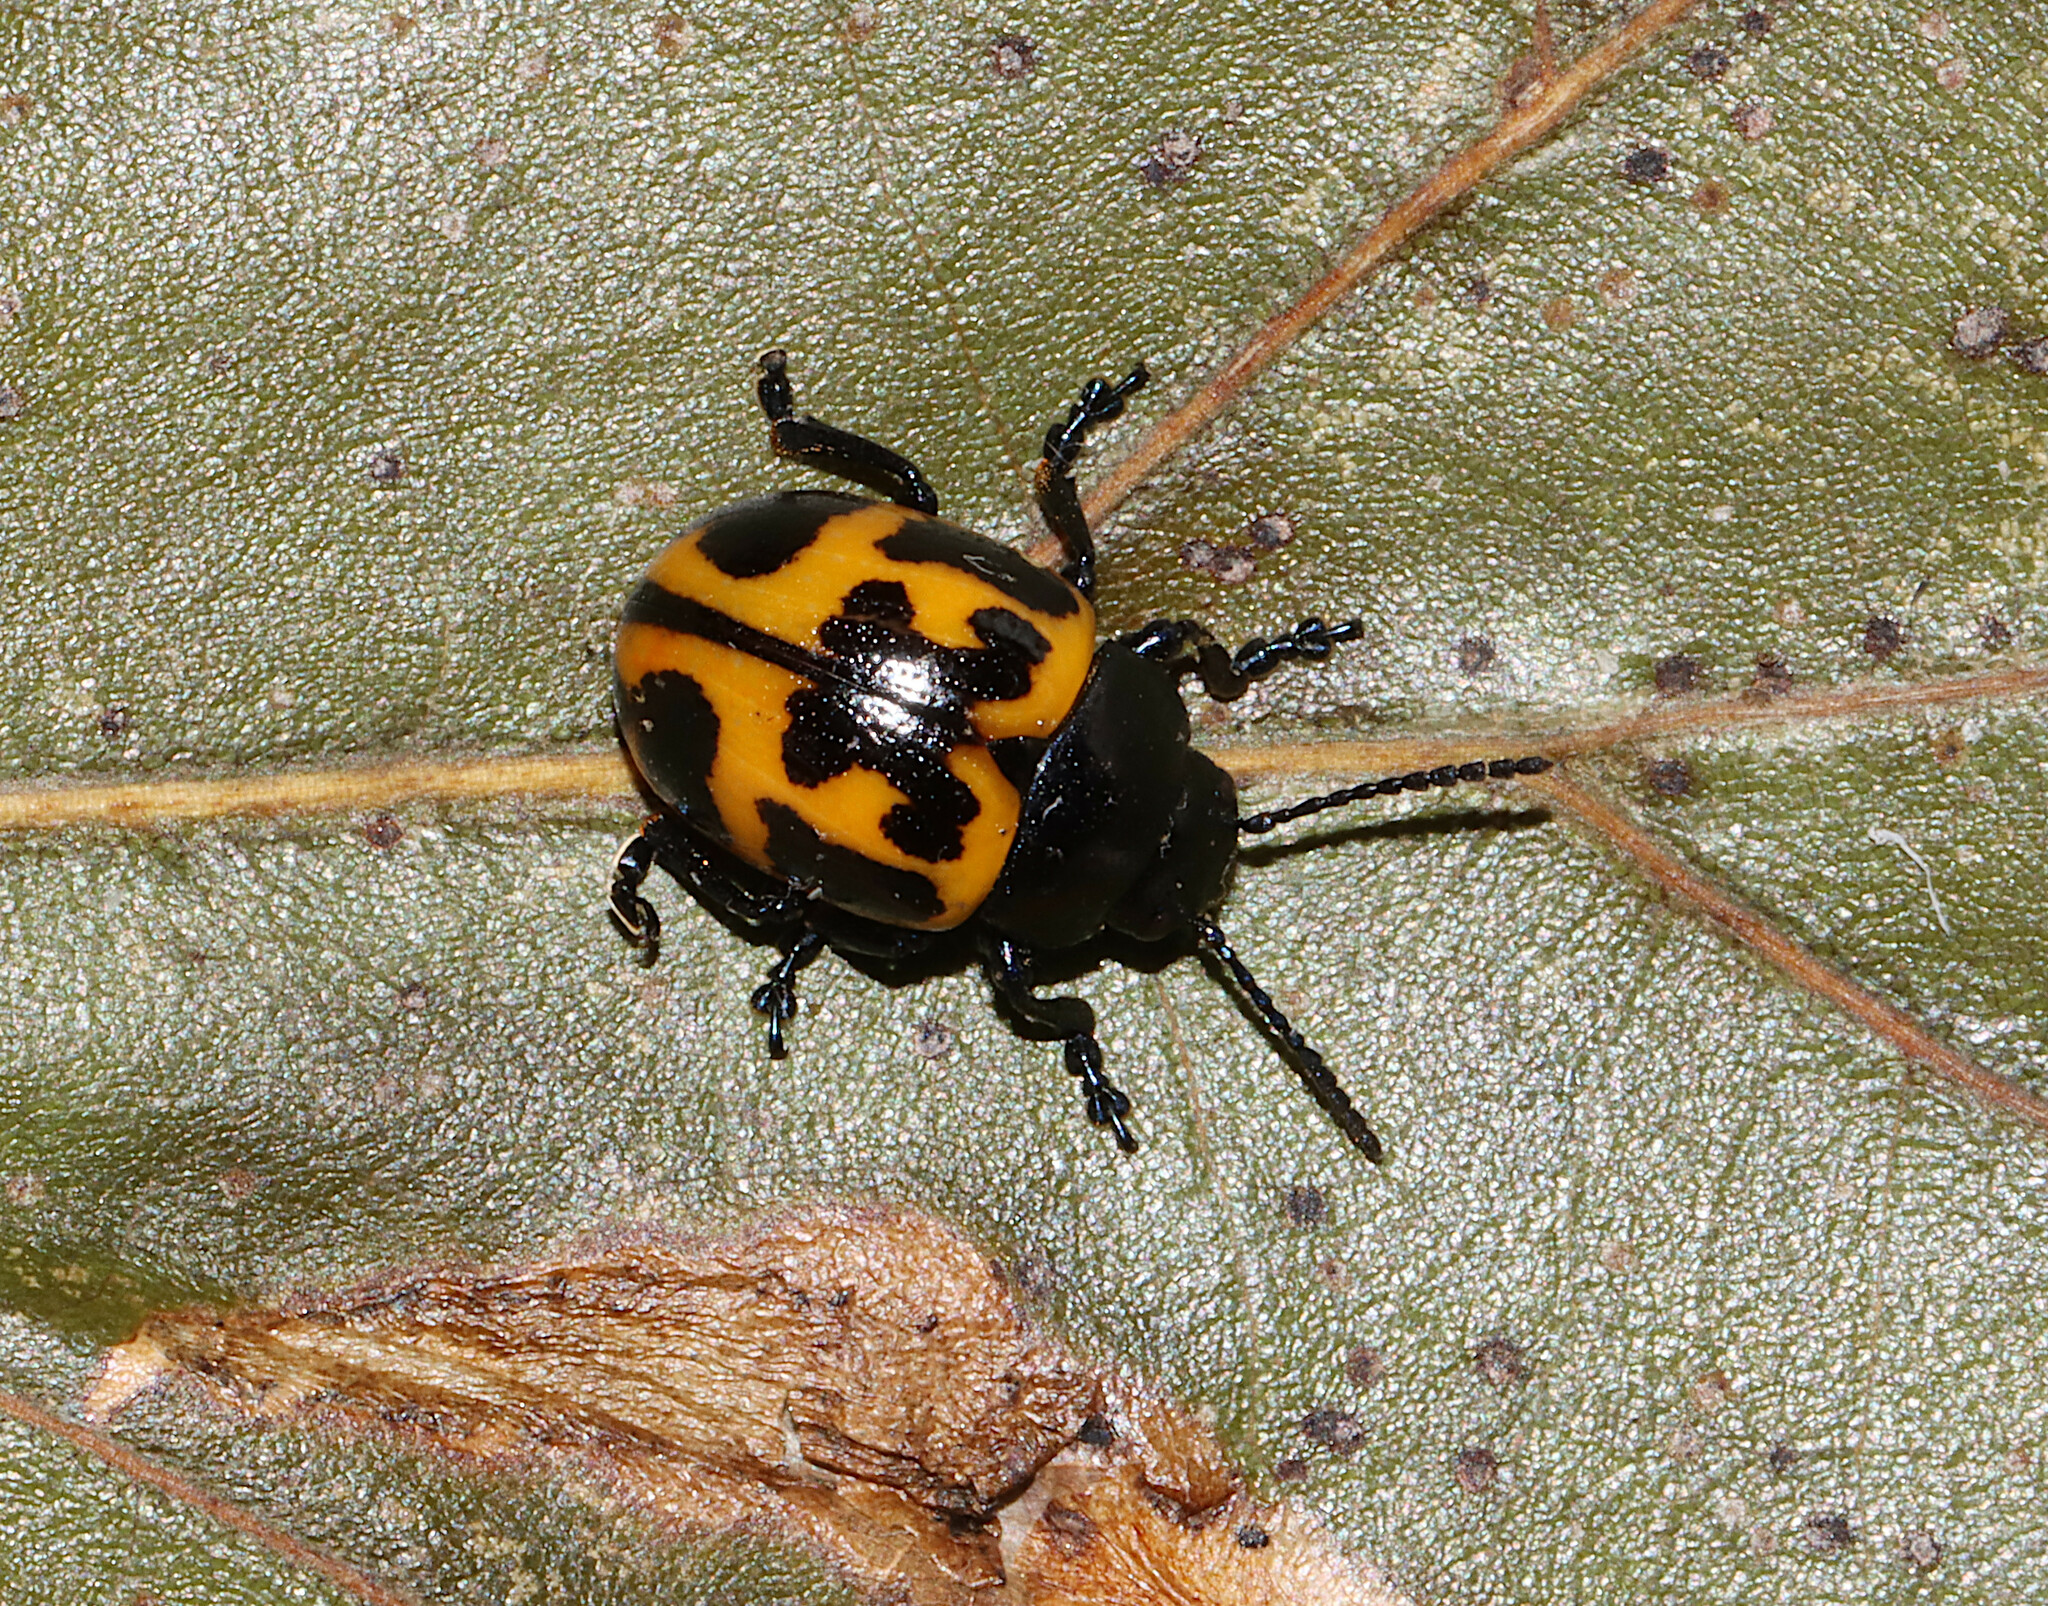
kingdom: Animalia
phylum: Arthropoda
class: Insecta
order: Coleoptera
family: Chrysomelidae
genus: Labidomera
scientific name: Labidomera clivicollis
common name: Swamp milkweed leaf beetle
